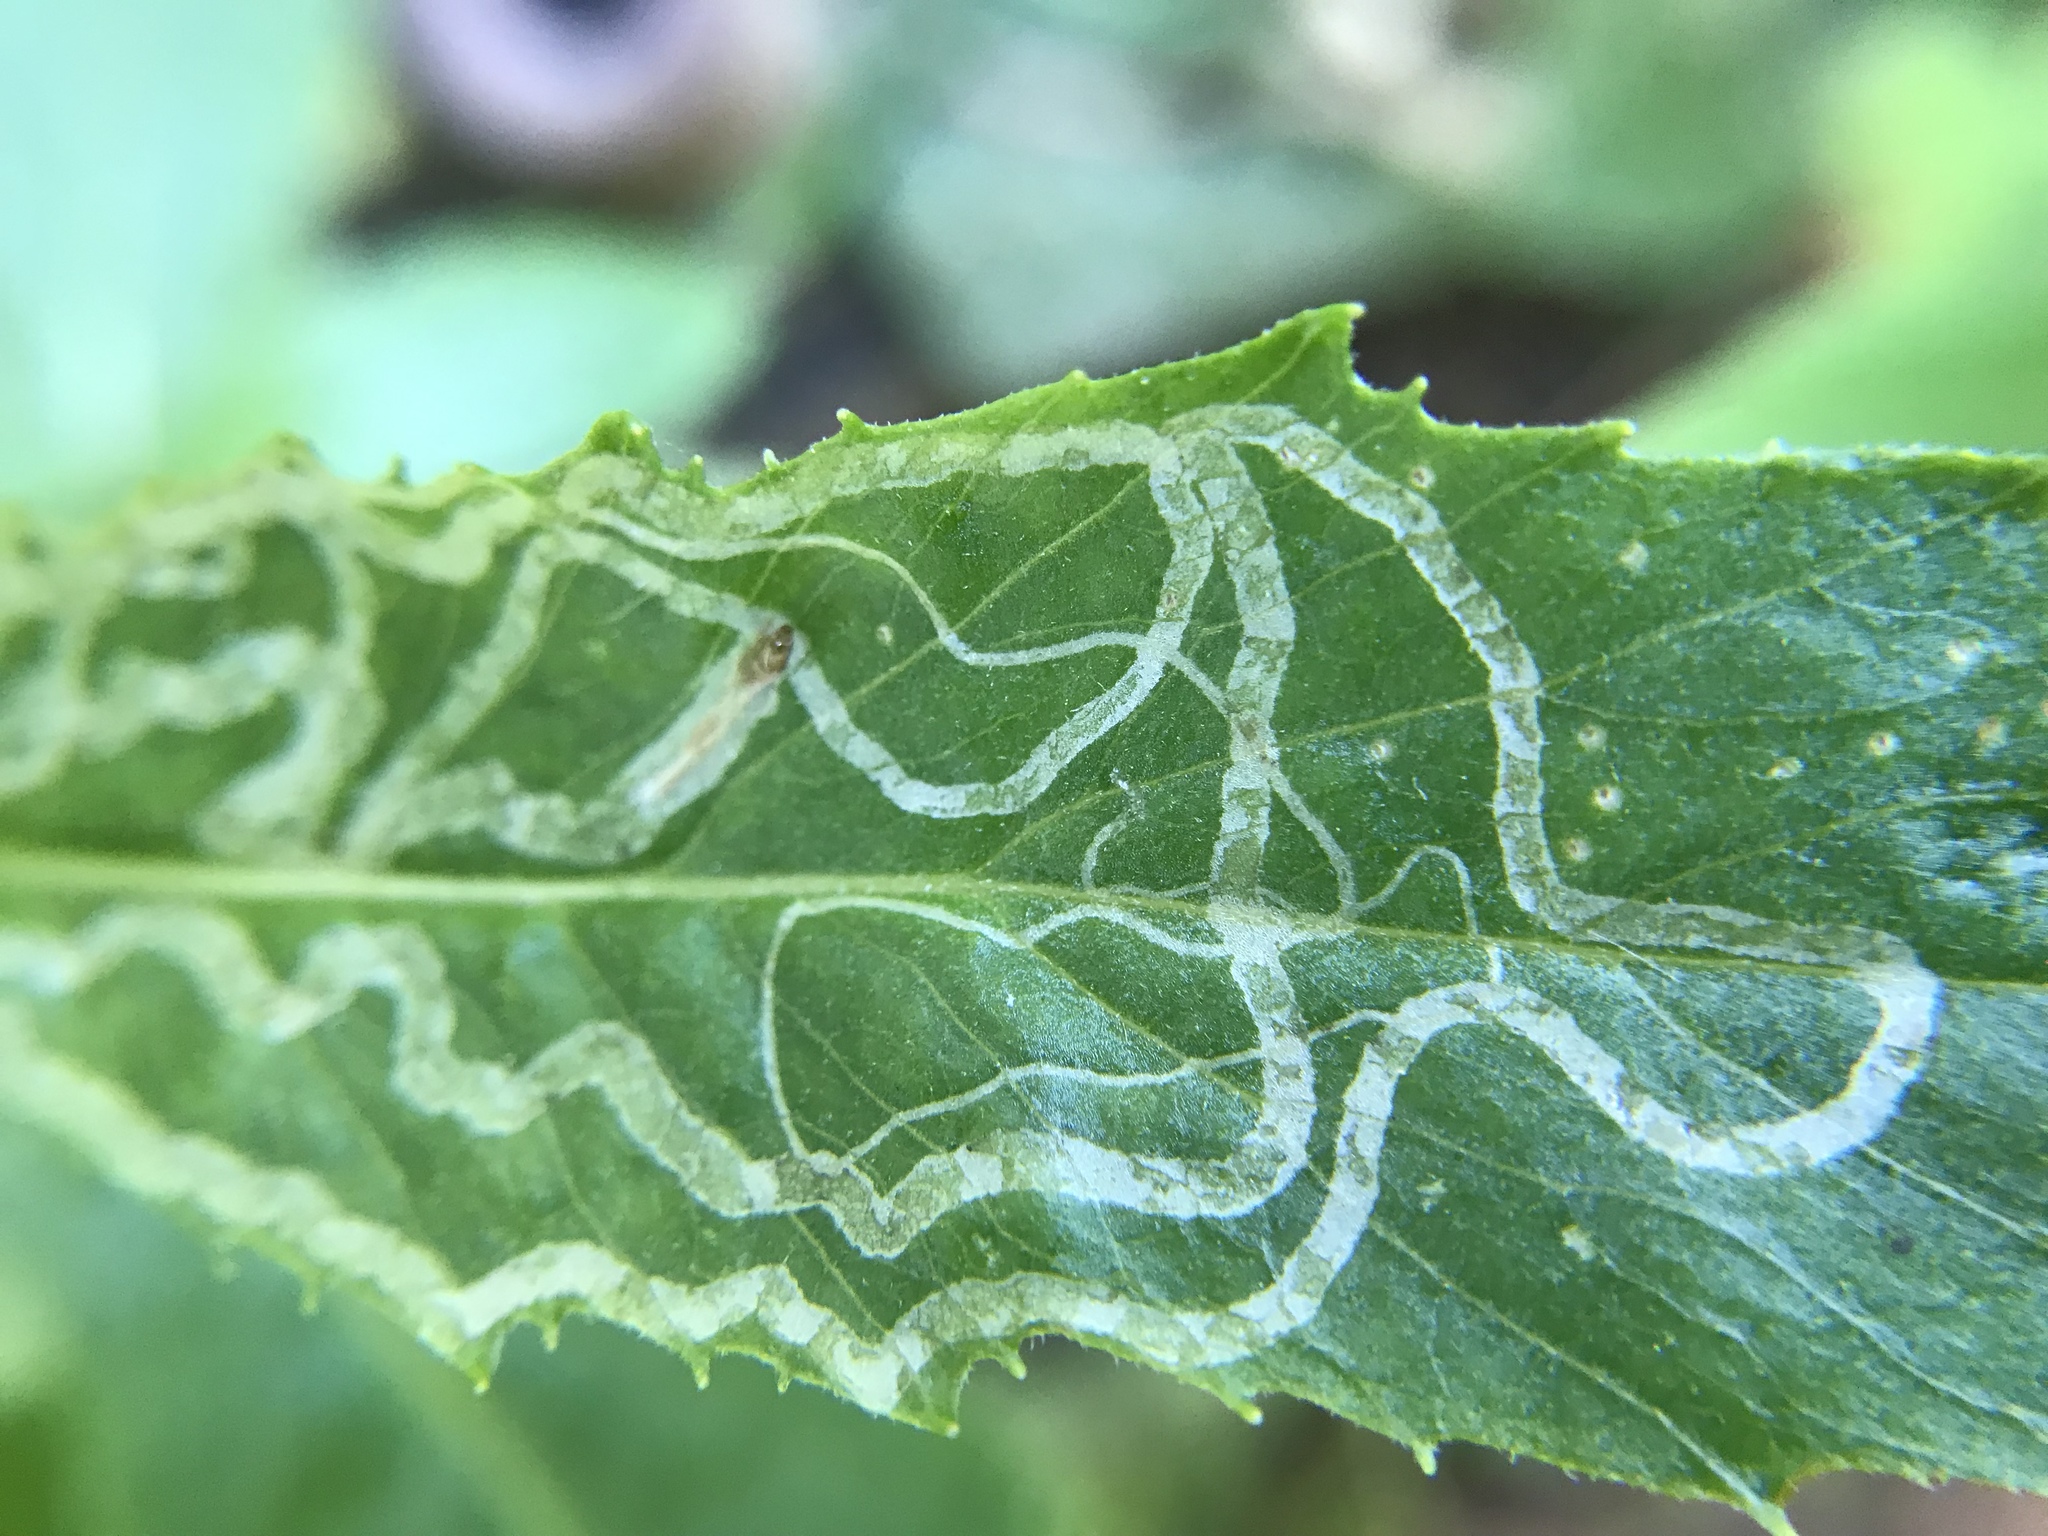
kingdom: Animalia
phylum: Arthropoda
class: Insecta
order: Lepidoptera
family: Gracillariidae
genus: Phyllocnistis
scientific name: Phyllocnistis insignis
